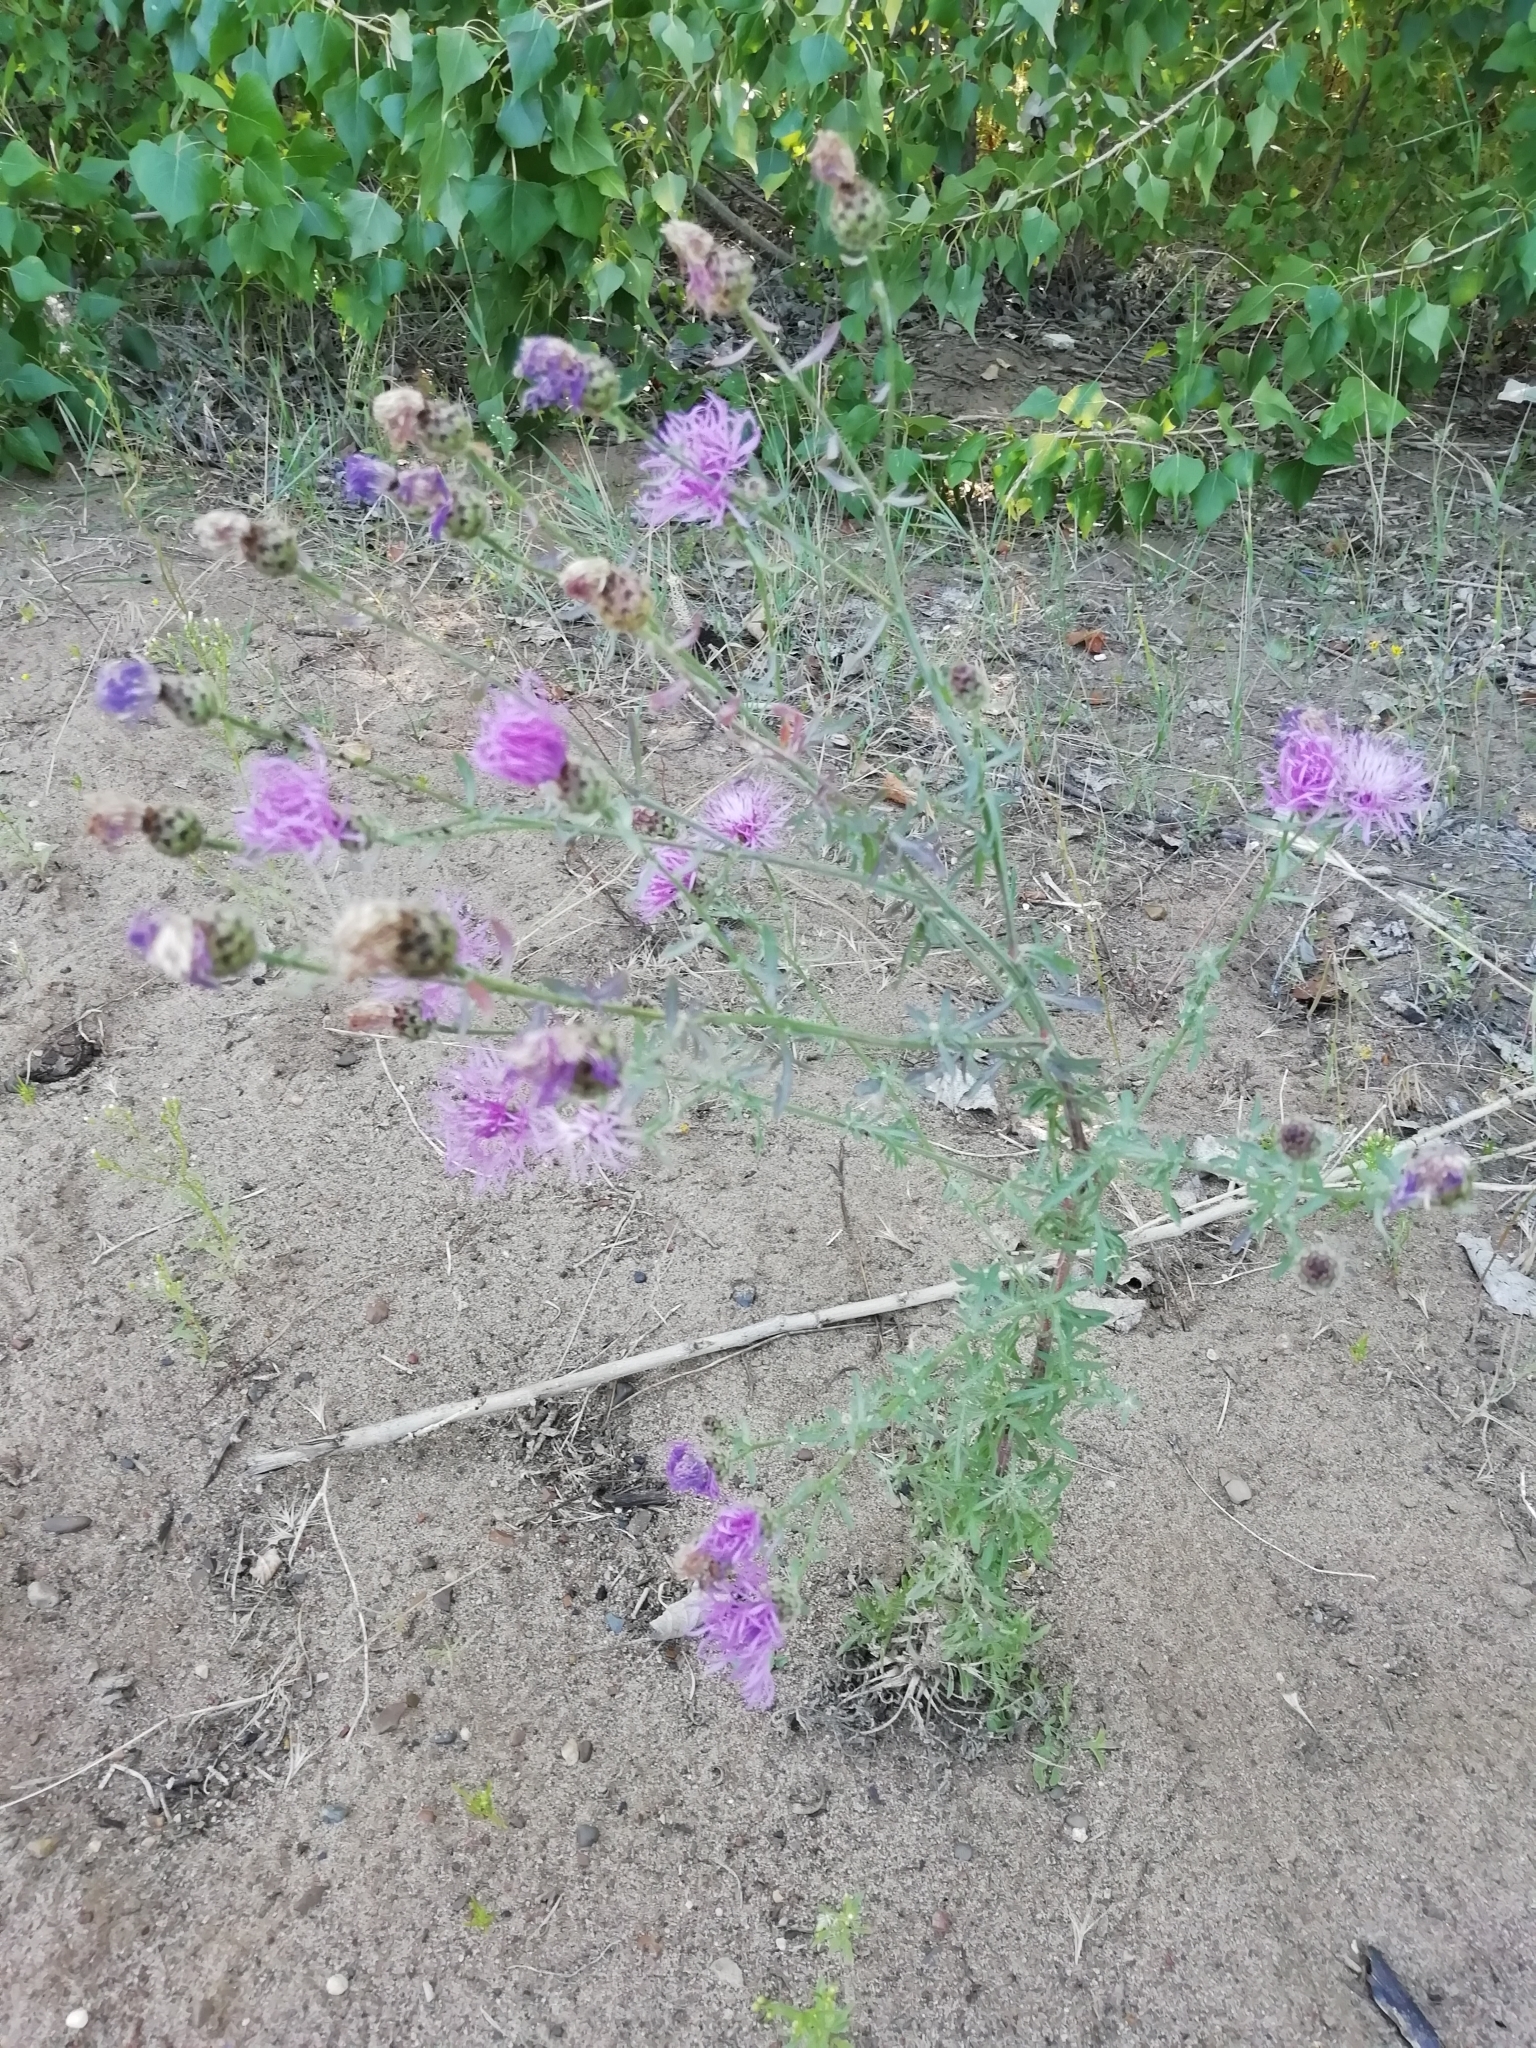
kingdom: Plantae
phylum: Tracheophyta
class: Magnoliopsida
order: Asterales
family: Asteraceae
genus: Centaurea
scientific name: Centaurea stoebe
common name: Spotted knapweed
